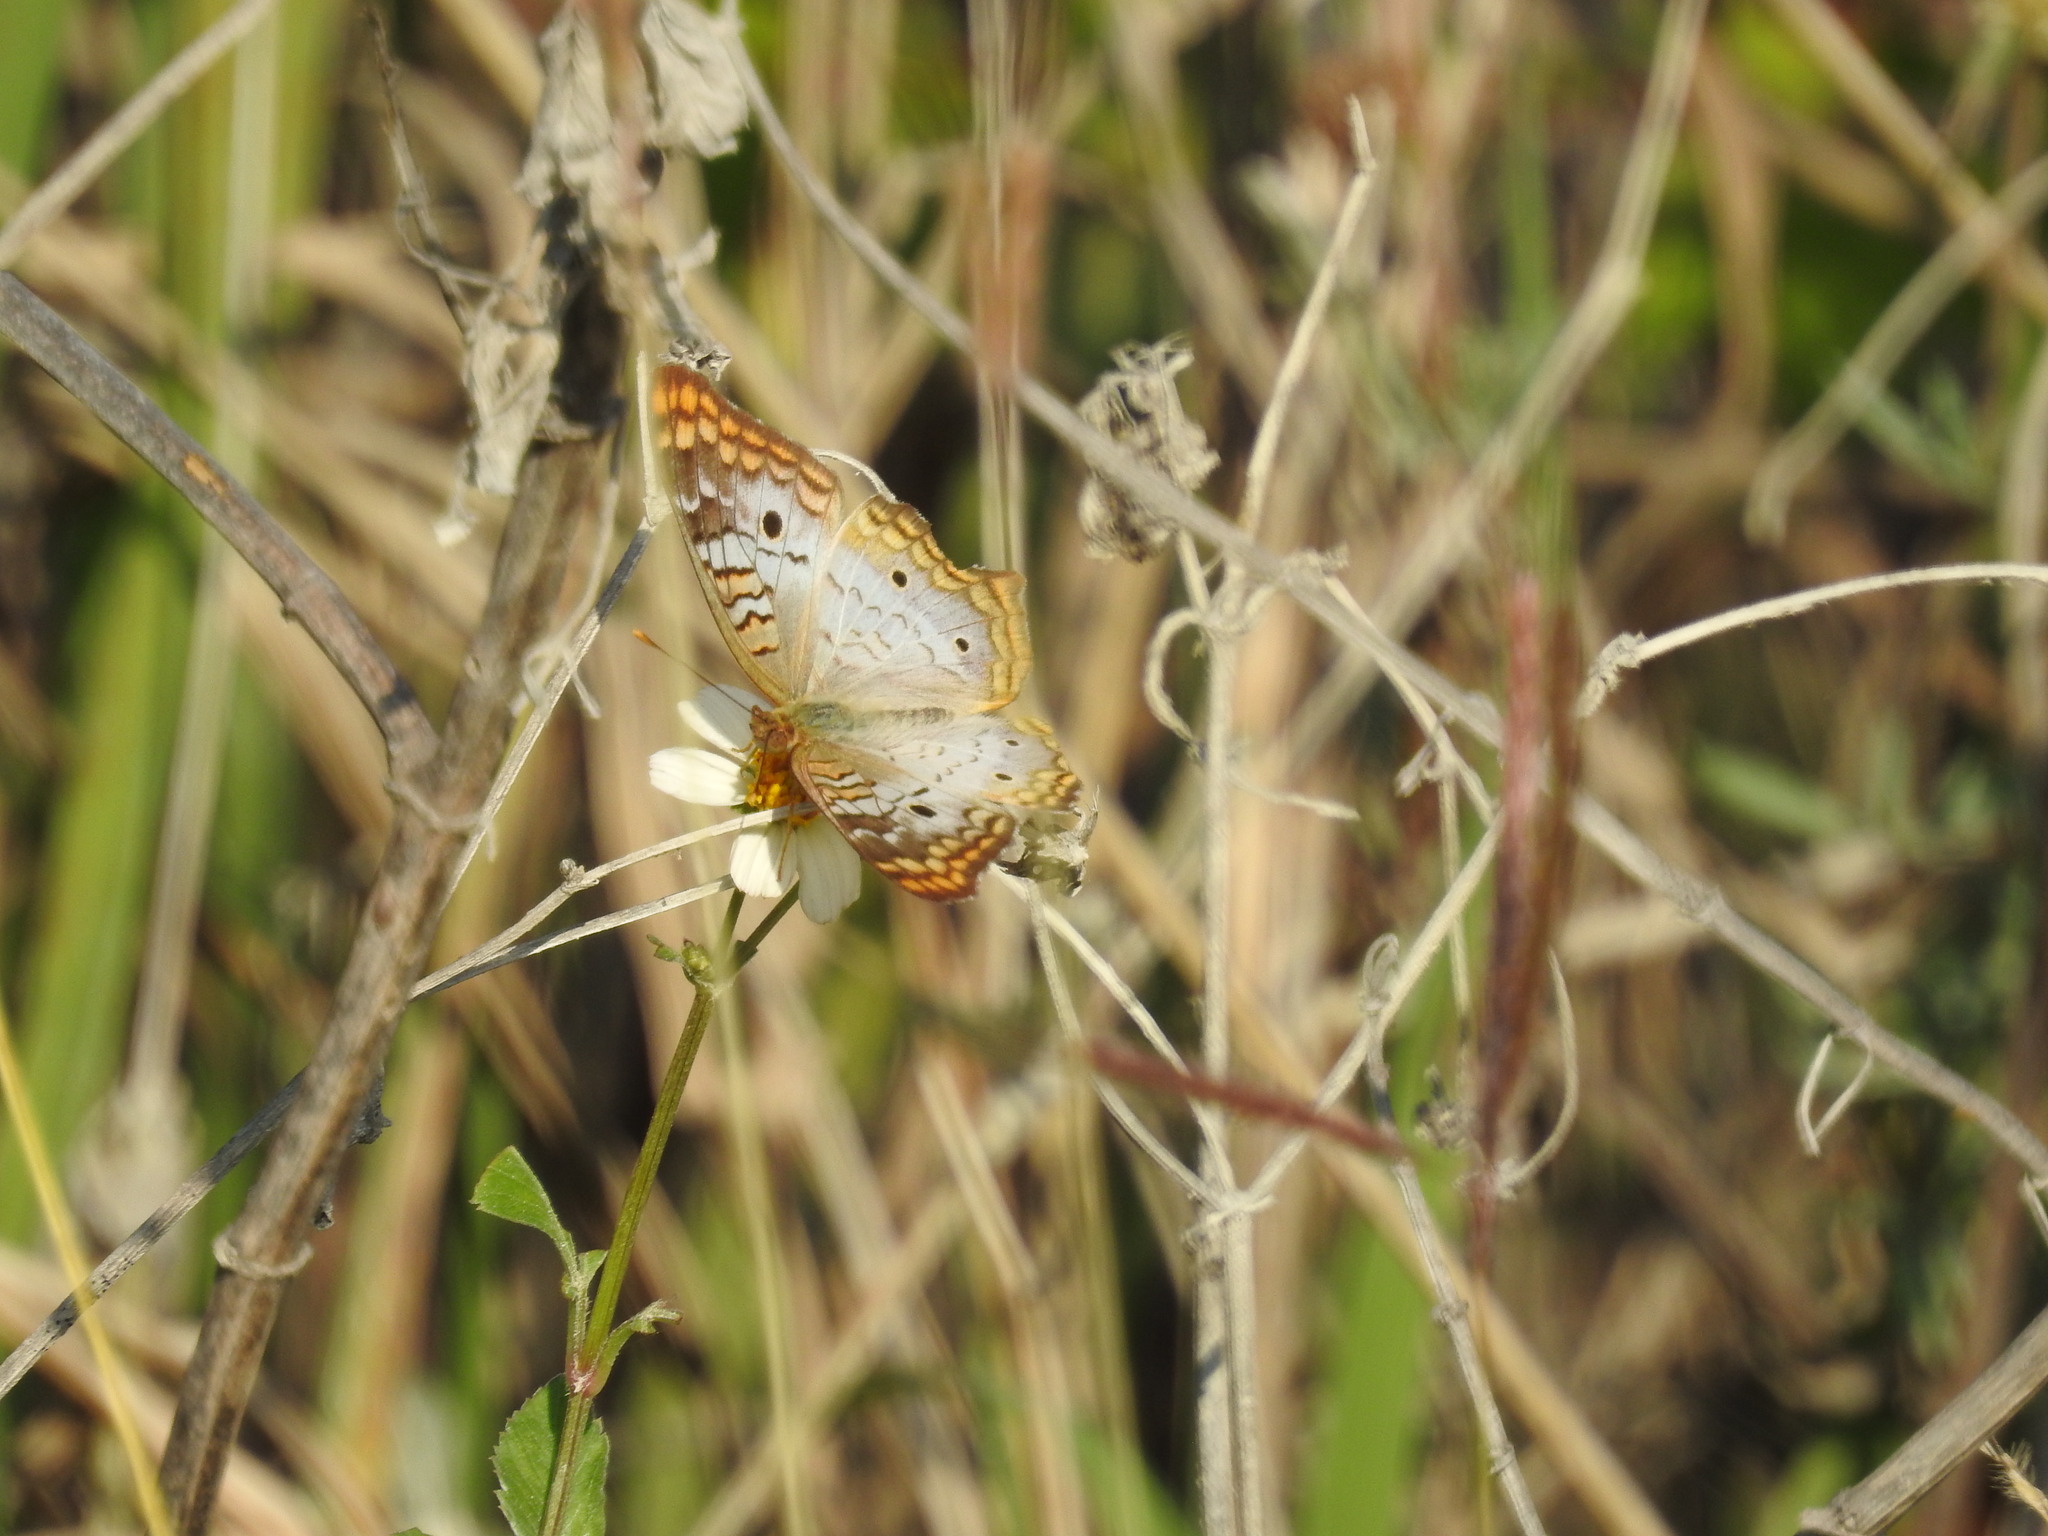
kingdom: Animalia
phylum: Arthropoda
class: Insecta
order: Lepidoptera
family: Nymphalidae
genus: Anartia
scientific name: Anartia jatrophae
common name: White peacock
